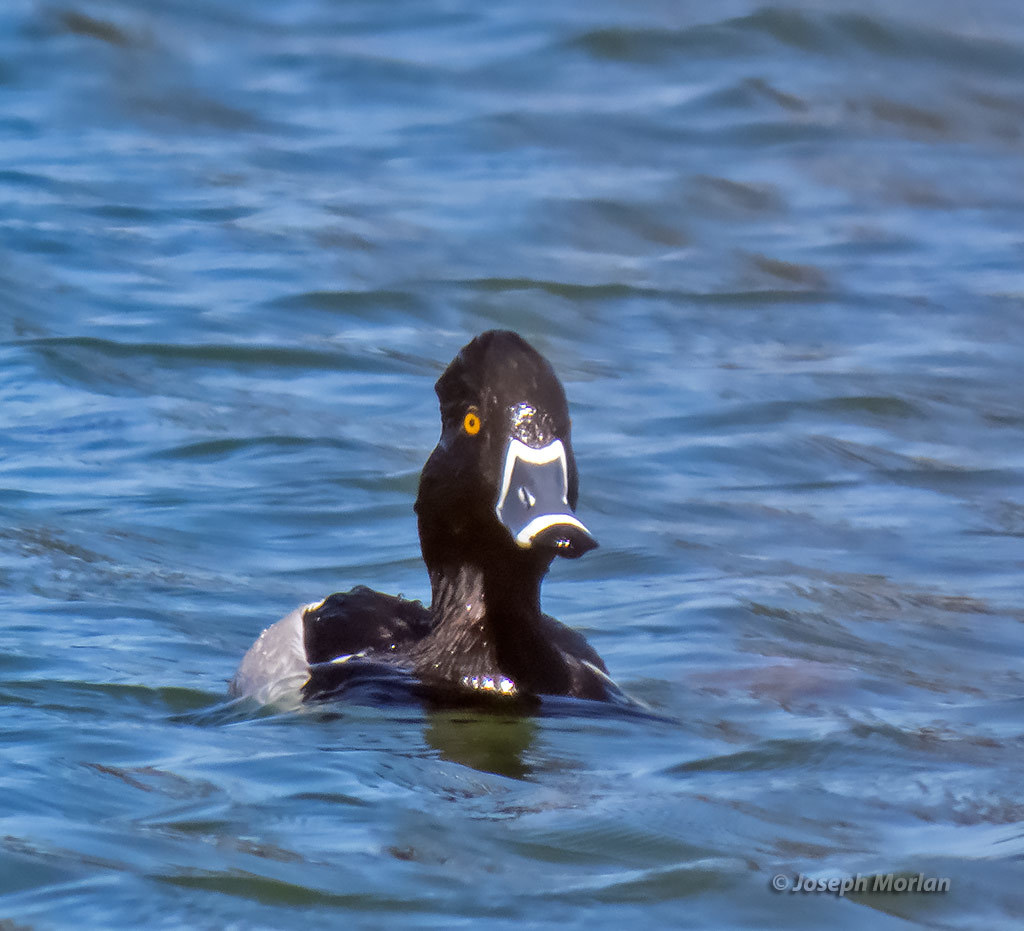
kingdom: Animalia
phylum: Chordata
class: Aves
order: Anseriformes
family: Anatidae
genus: Aythya
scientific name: Aythya collaris
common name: Ring-necked duck
